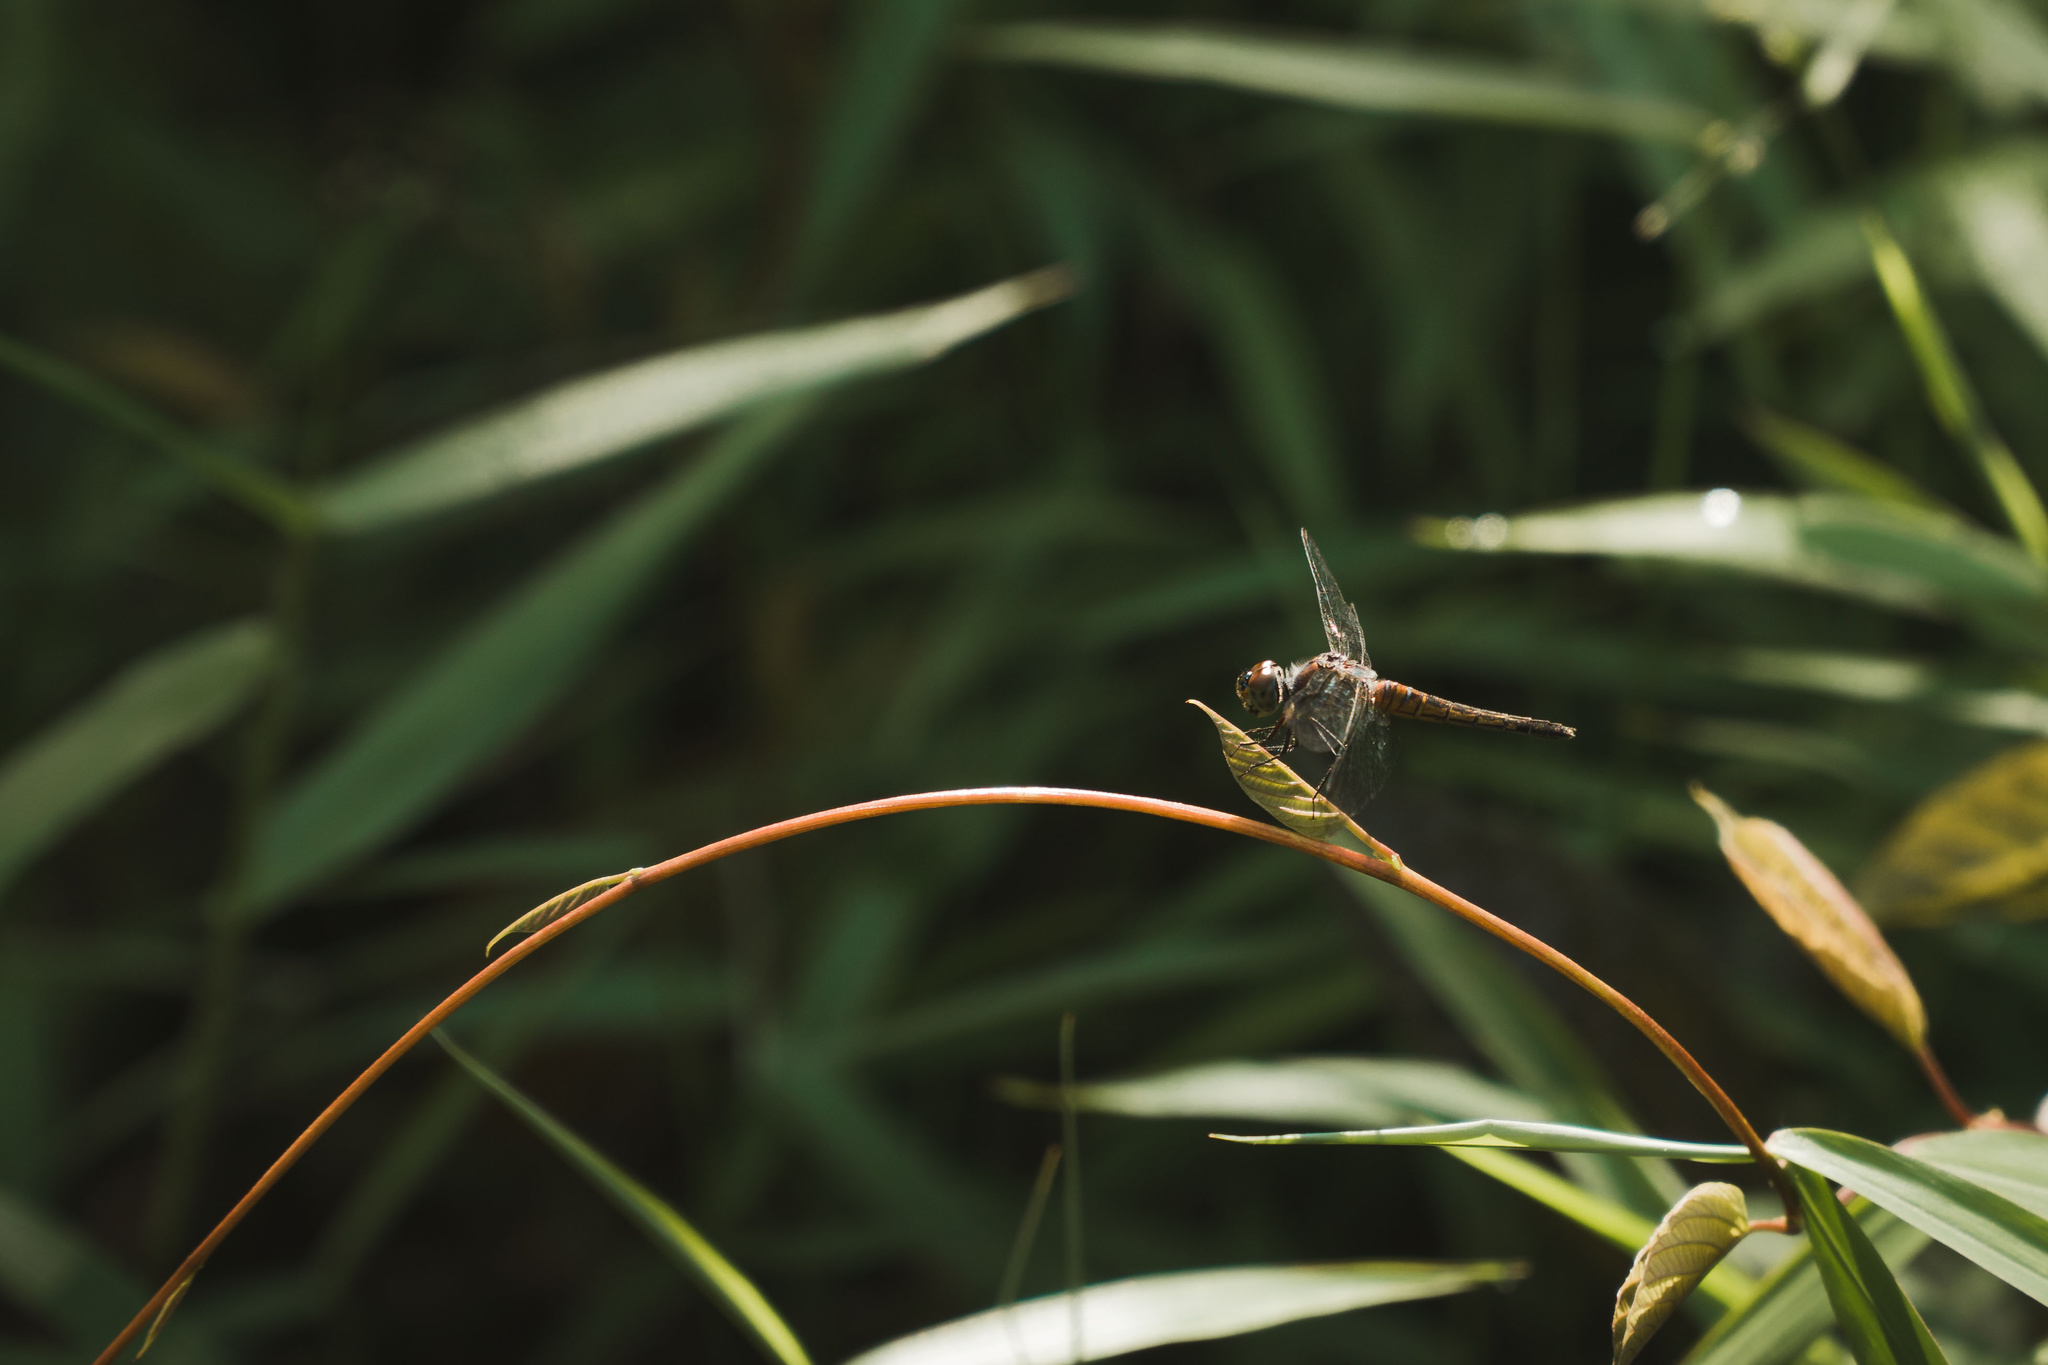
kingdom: Animalia
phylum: Arthropoda
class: Insecta
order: Odonata
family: Libellulidae
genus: Brachydiplax
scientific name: Brachydiplax chalybea
